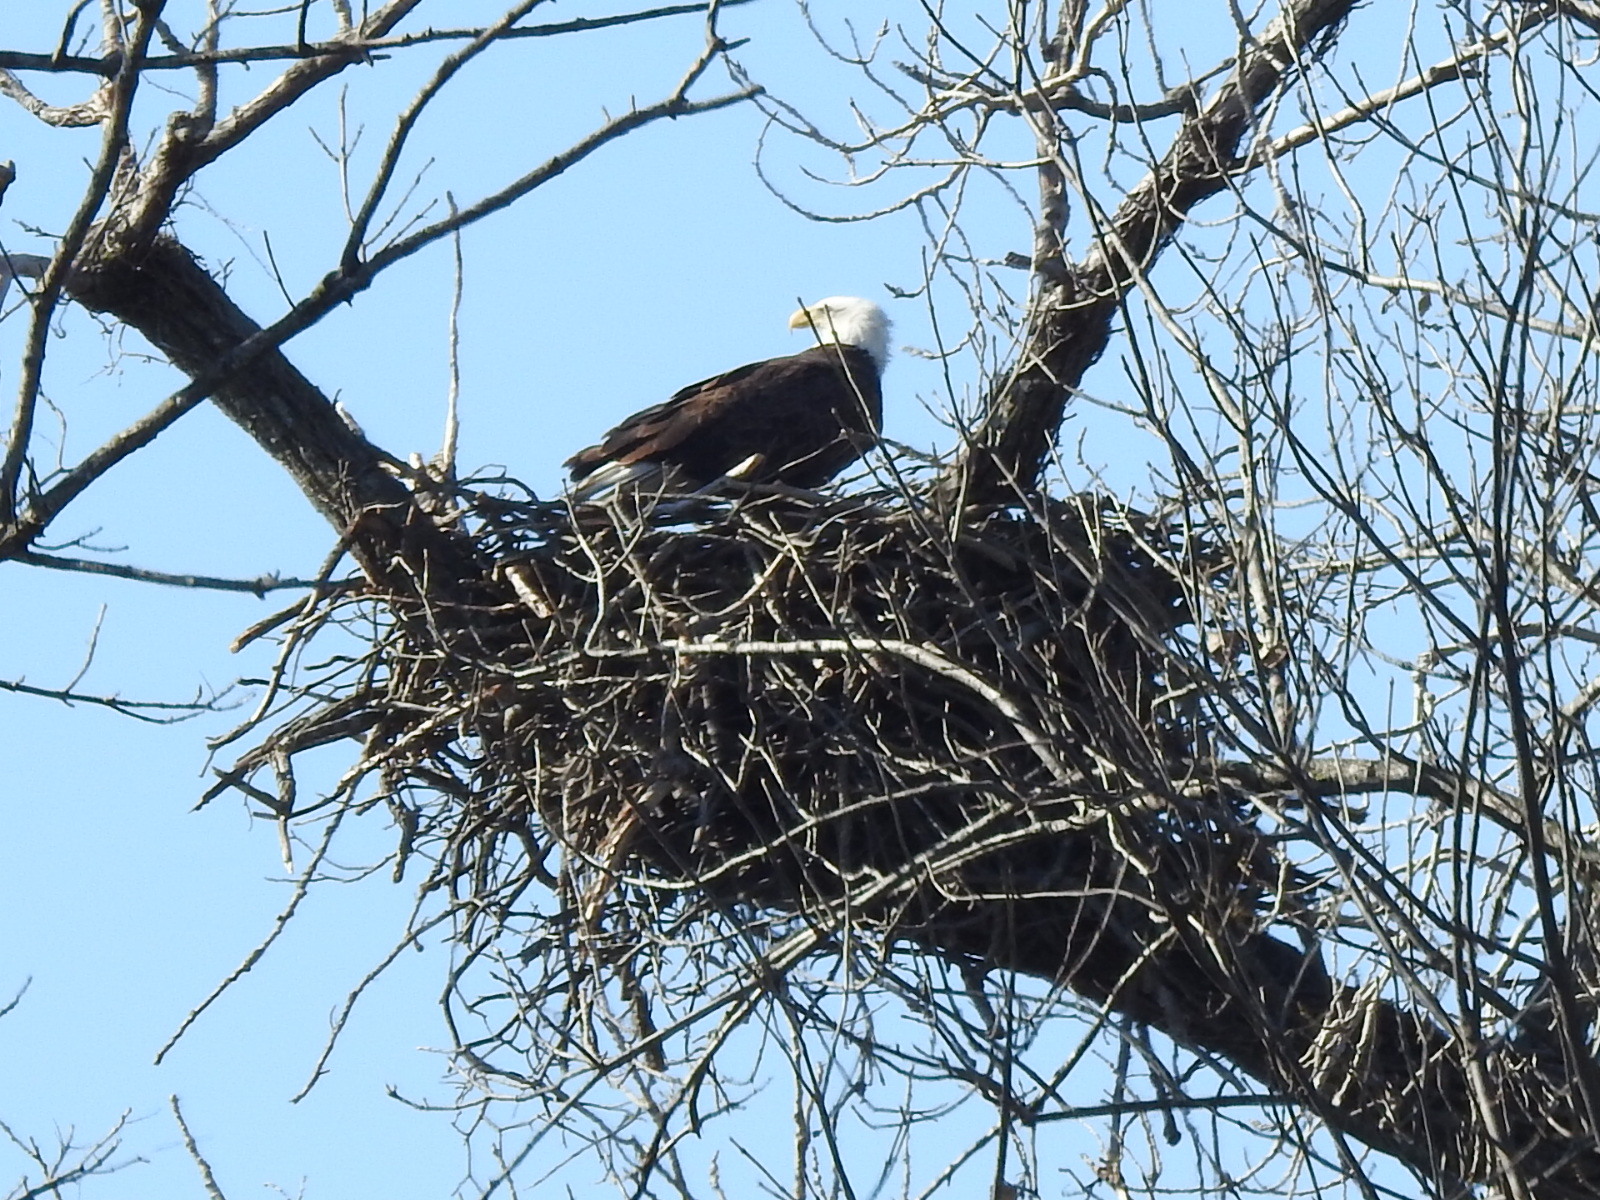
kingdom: Animalia
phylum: Chordata
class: Aves
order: Accipitriformes
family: Accipitridae
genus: Haliaeetus
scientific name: Haliaeetus leucocephalus
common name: Bald eagle
